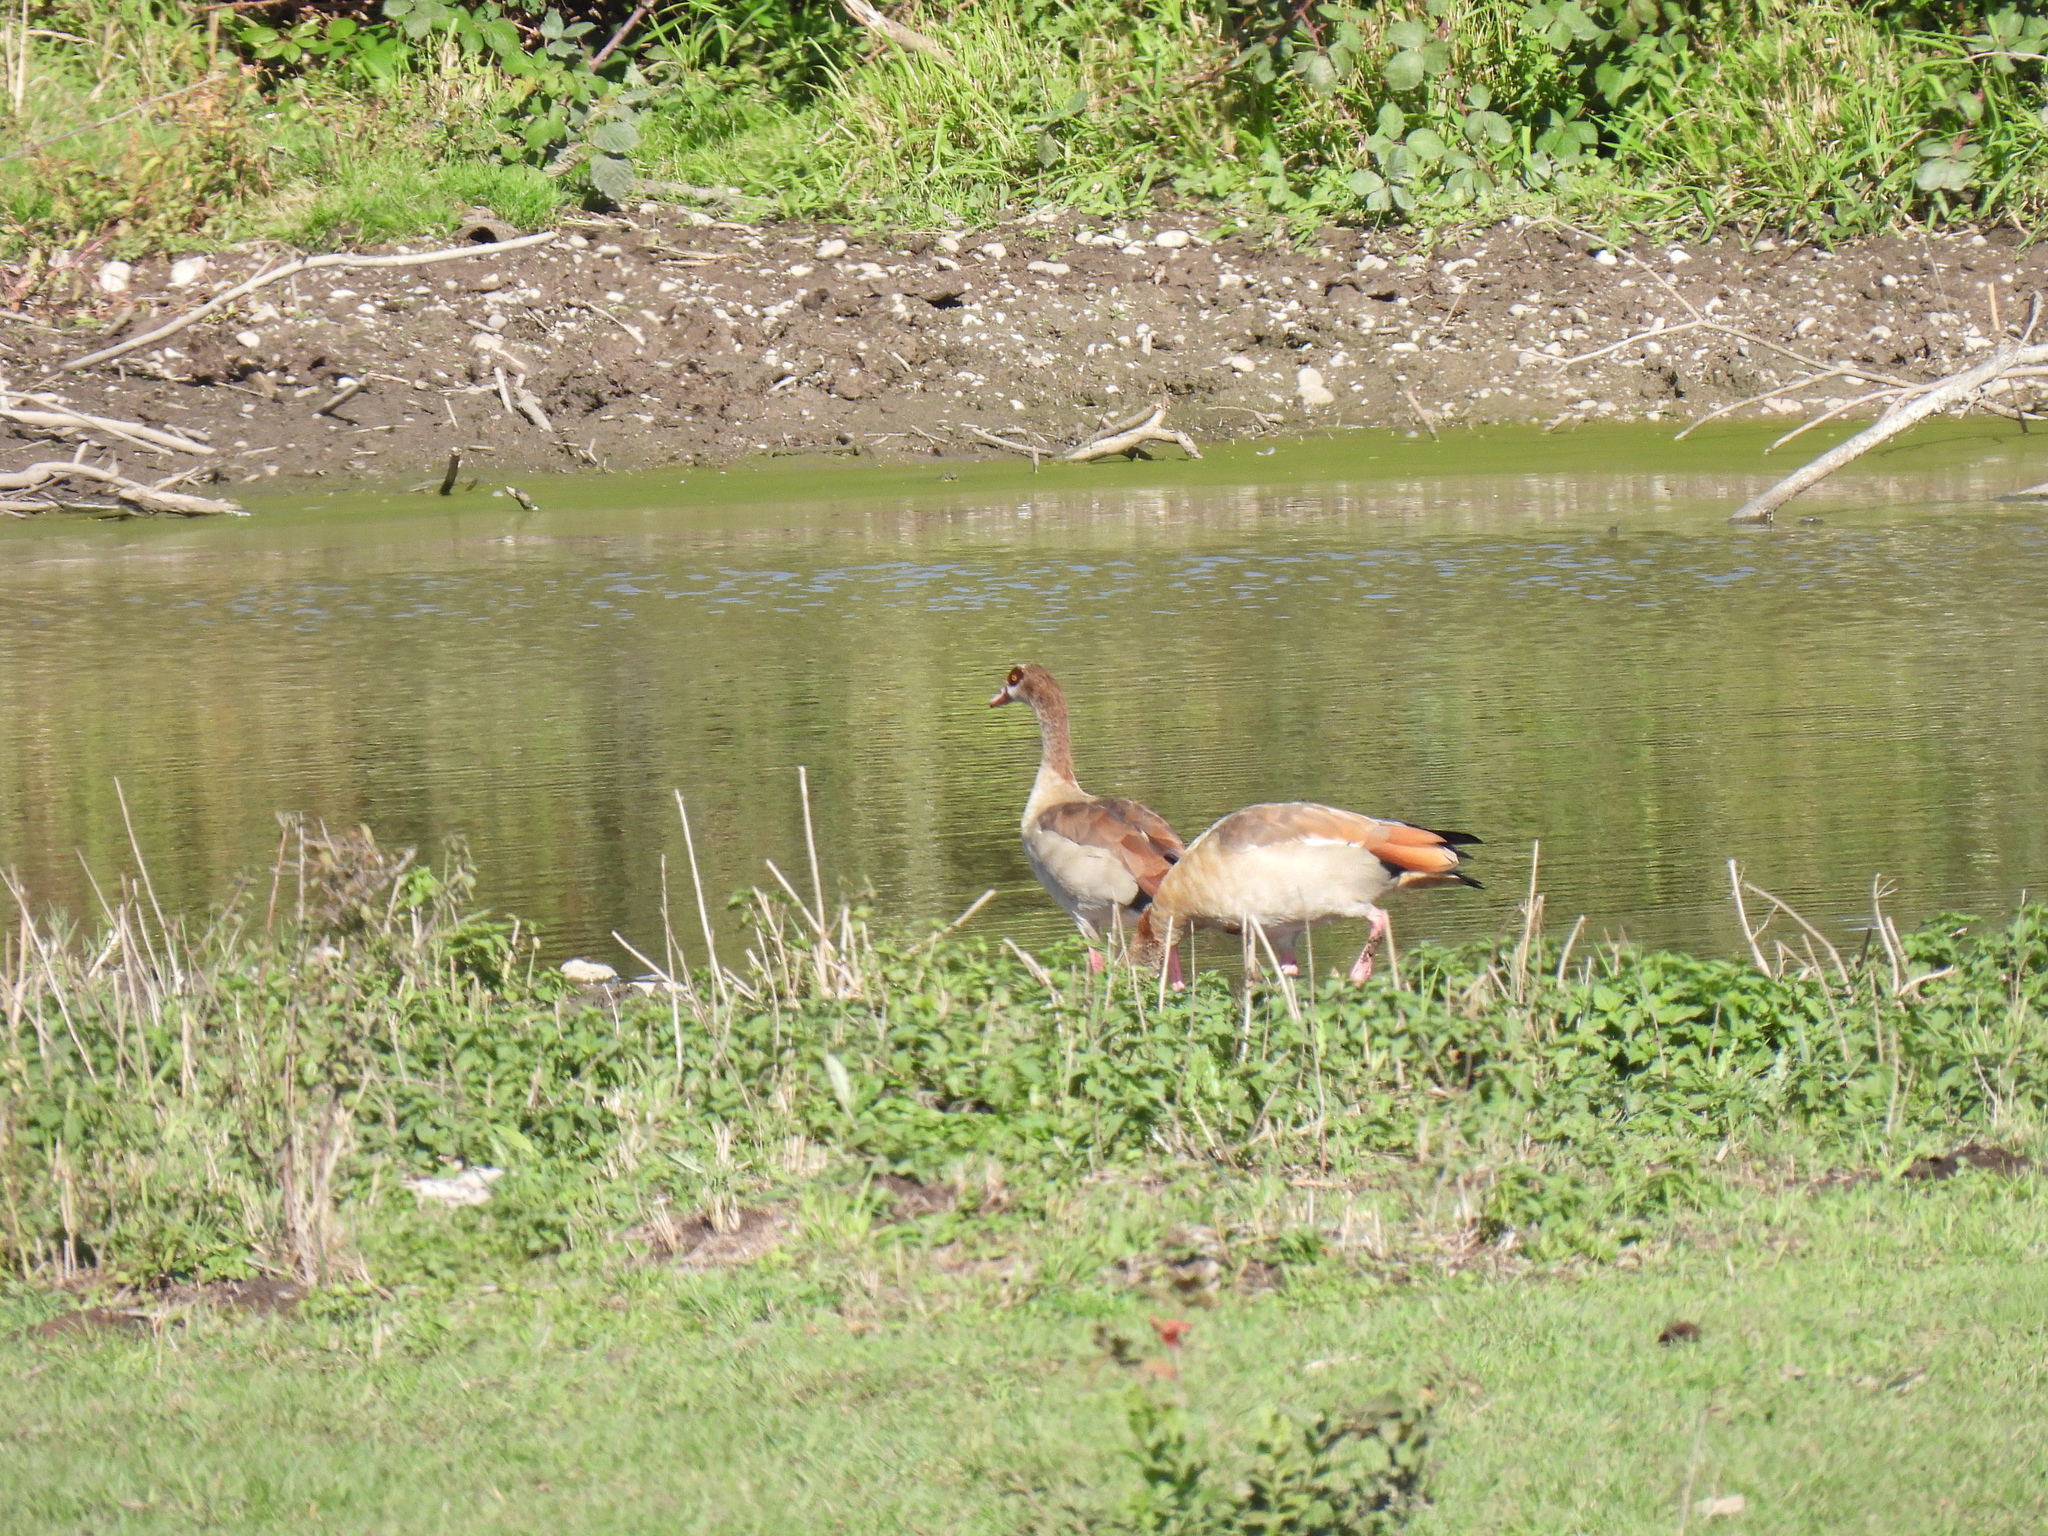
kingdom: Animalia
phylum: Chordata
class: Aves
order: Anseriformes
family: Anatidae
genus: Alopochen
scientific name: Alopochen aegyptiaca
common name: Egyptian goose
